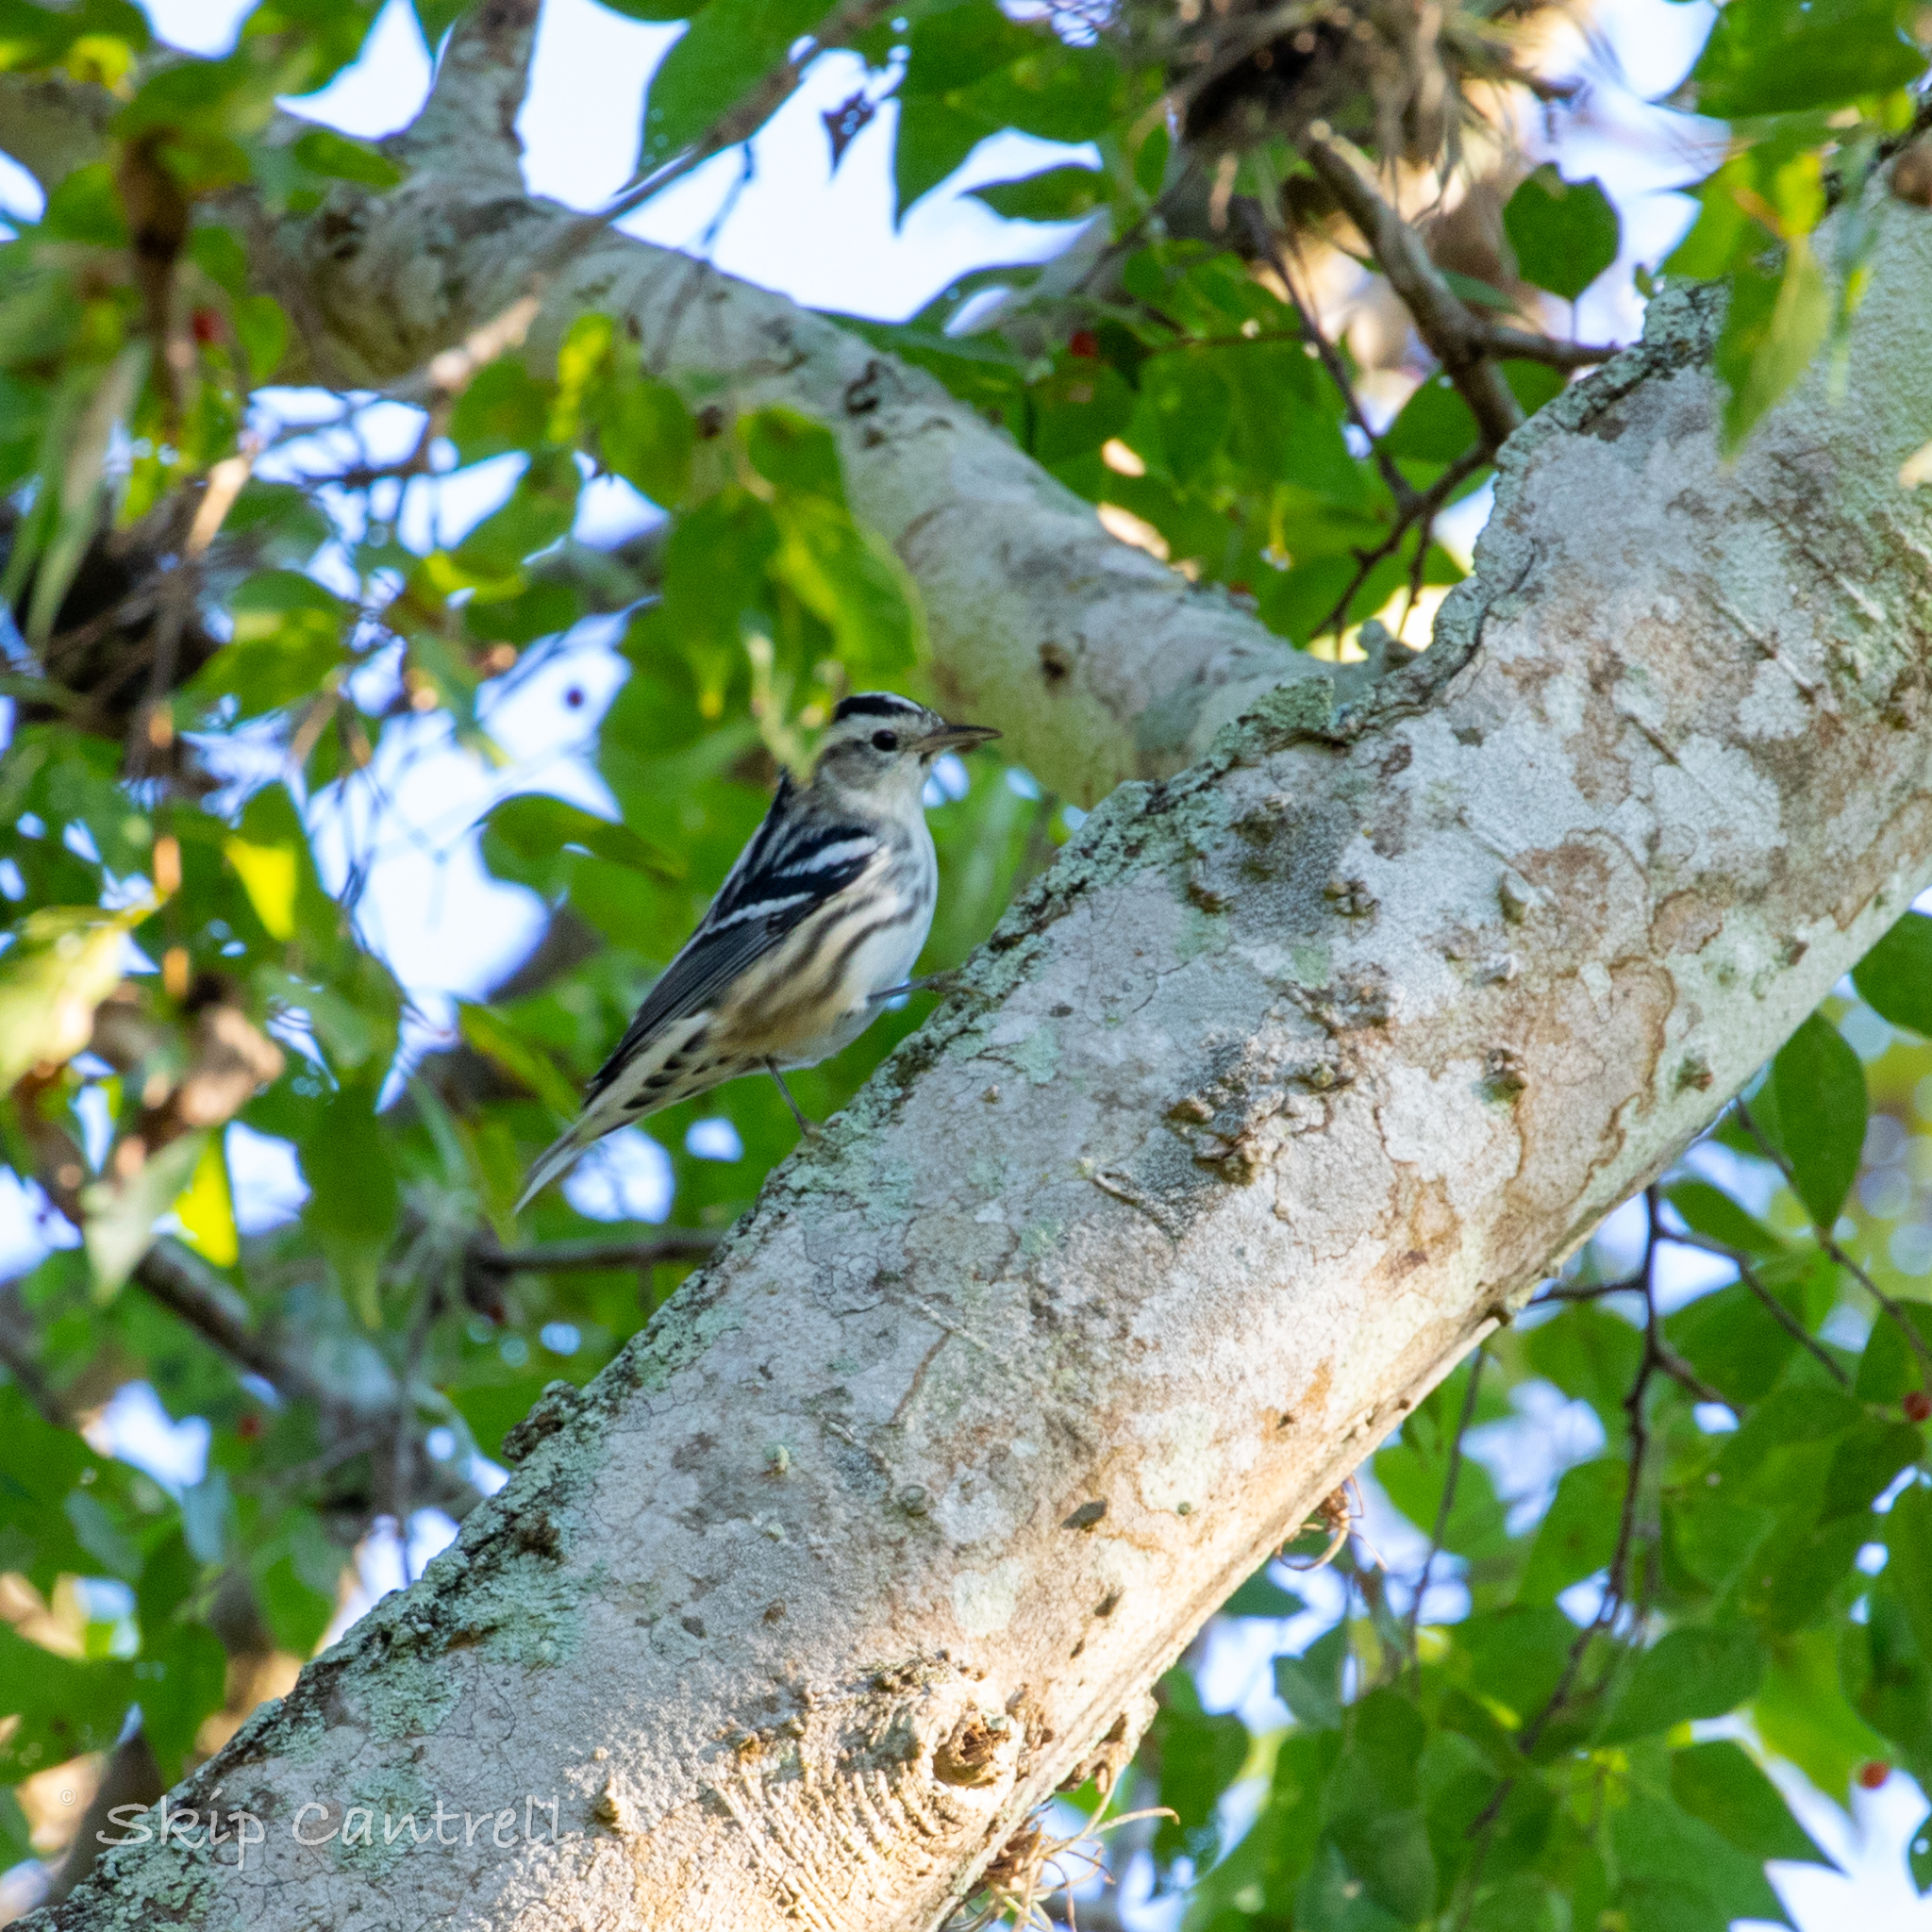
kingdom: Animalia
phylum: Chordata
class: Aves
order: Passeriformes
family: Parulidae
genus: Mniotilta
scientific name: Mniotilta varia
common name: Black-and-white warbler
